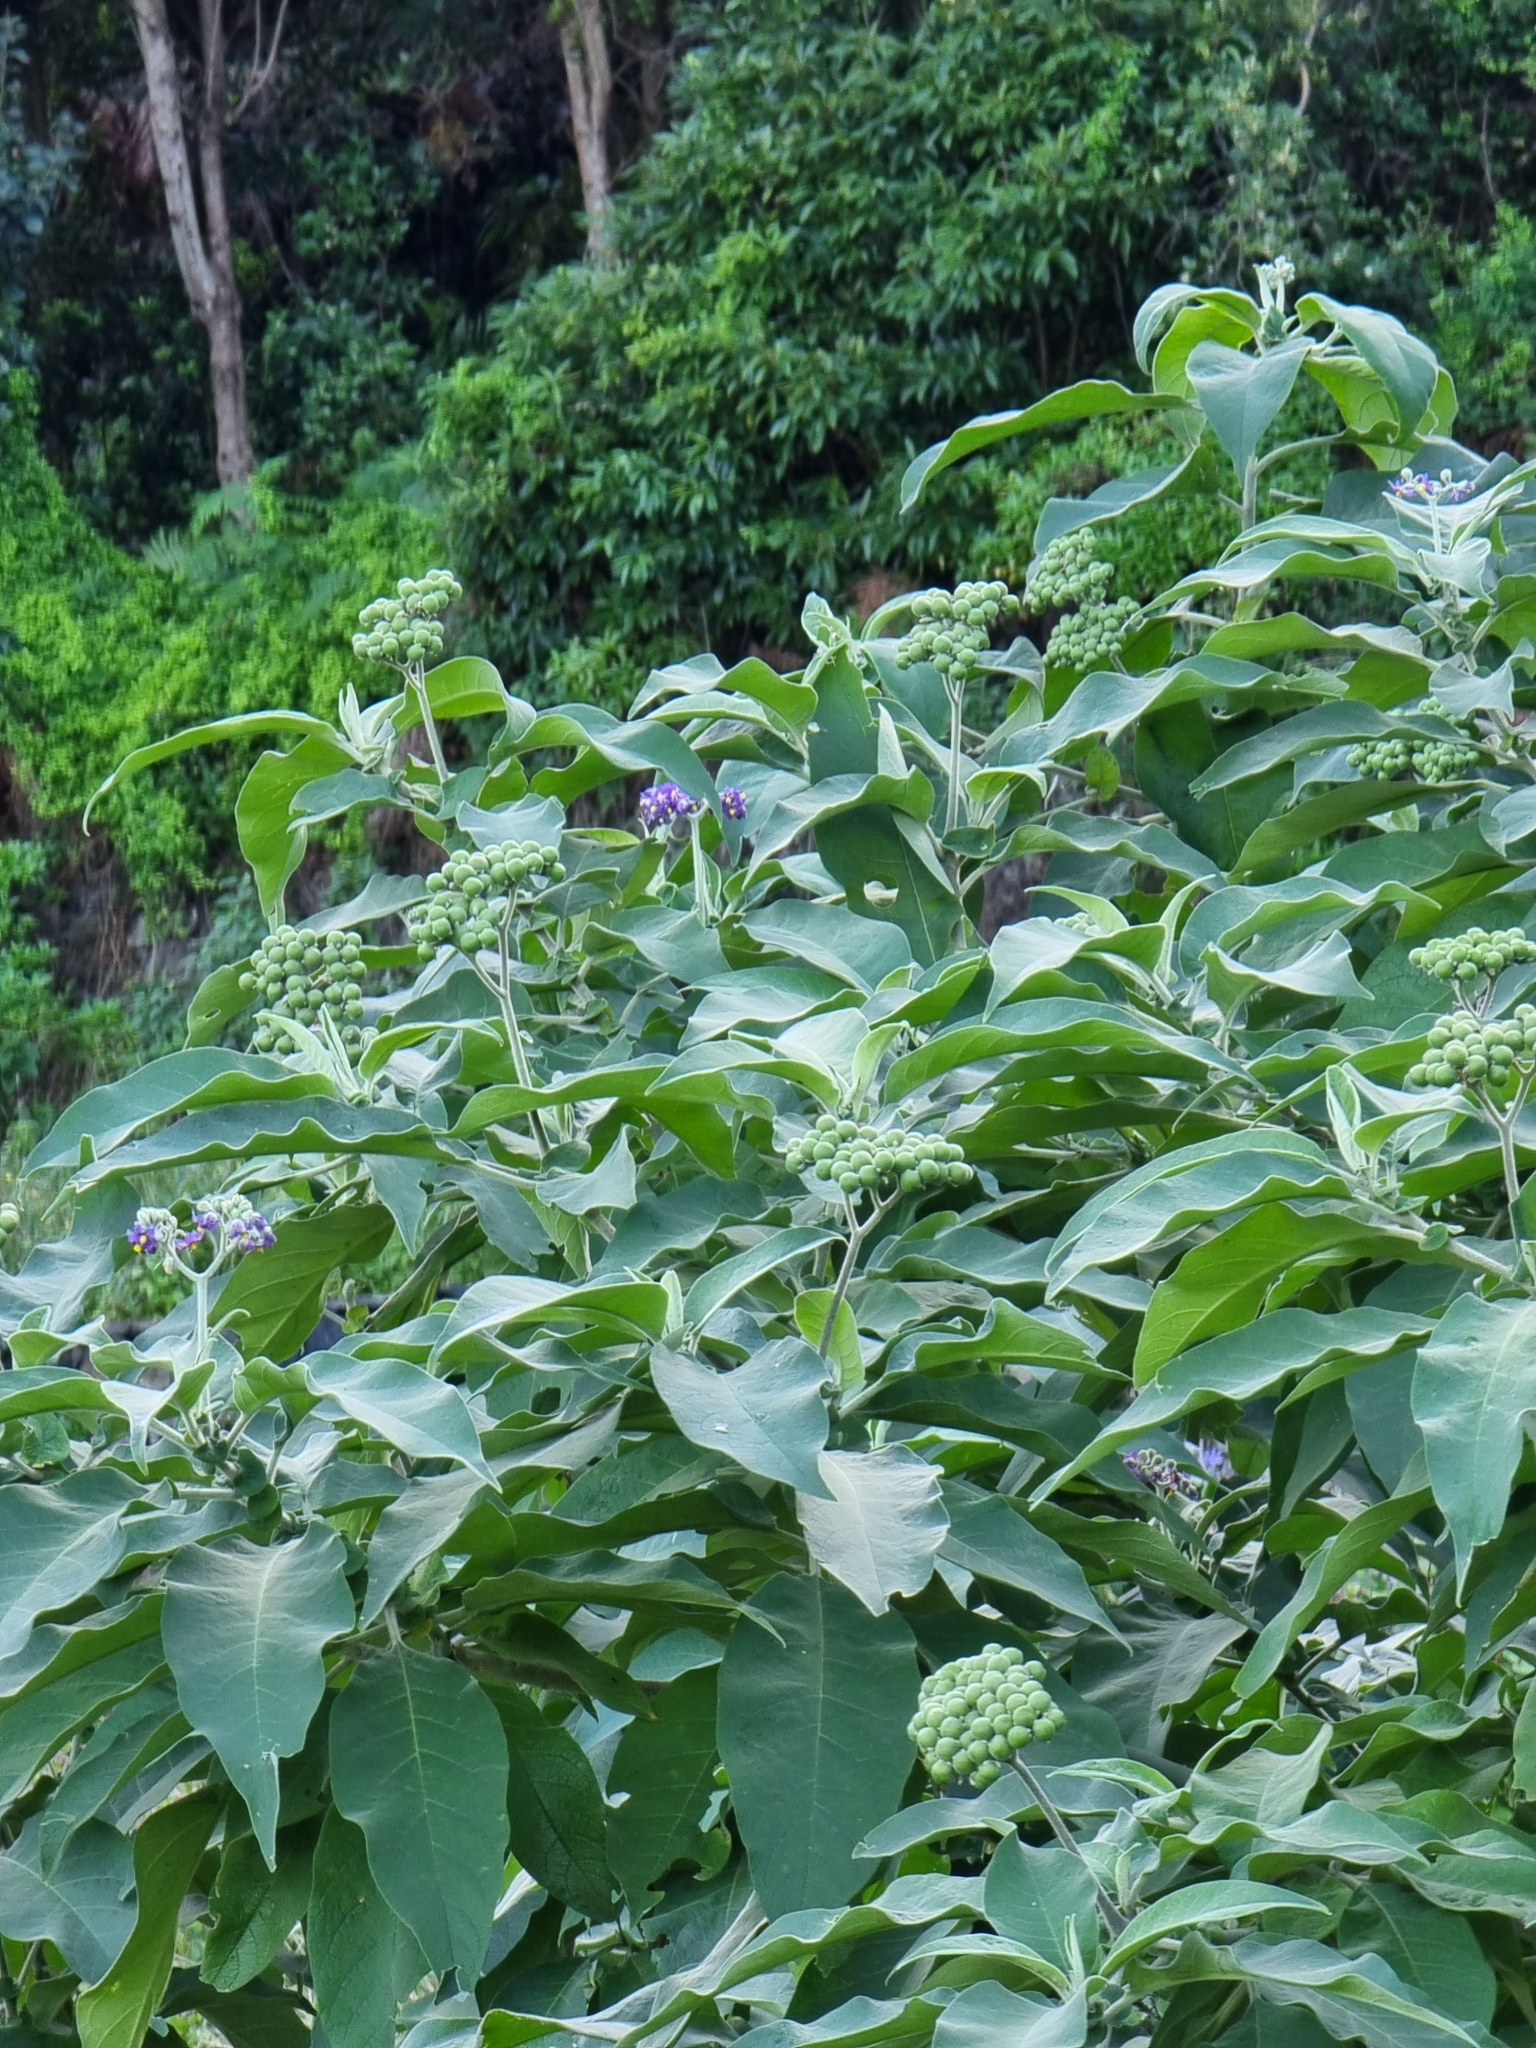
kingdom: Plantae
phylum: Tracheophyta
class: Magnoliopsida
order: Solanales
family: Solanaceae
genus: Solanum
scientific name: Solanum mauritianum
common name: Earleaf nightshade
